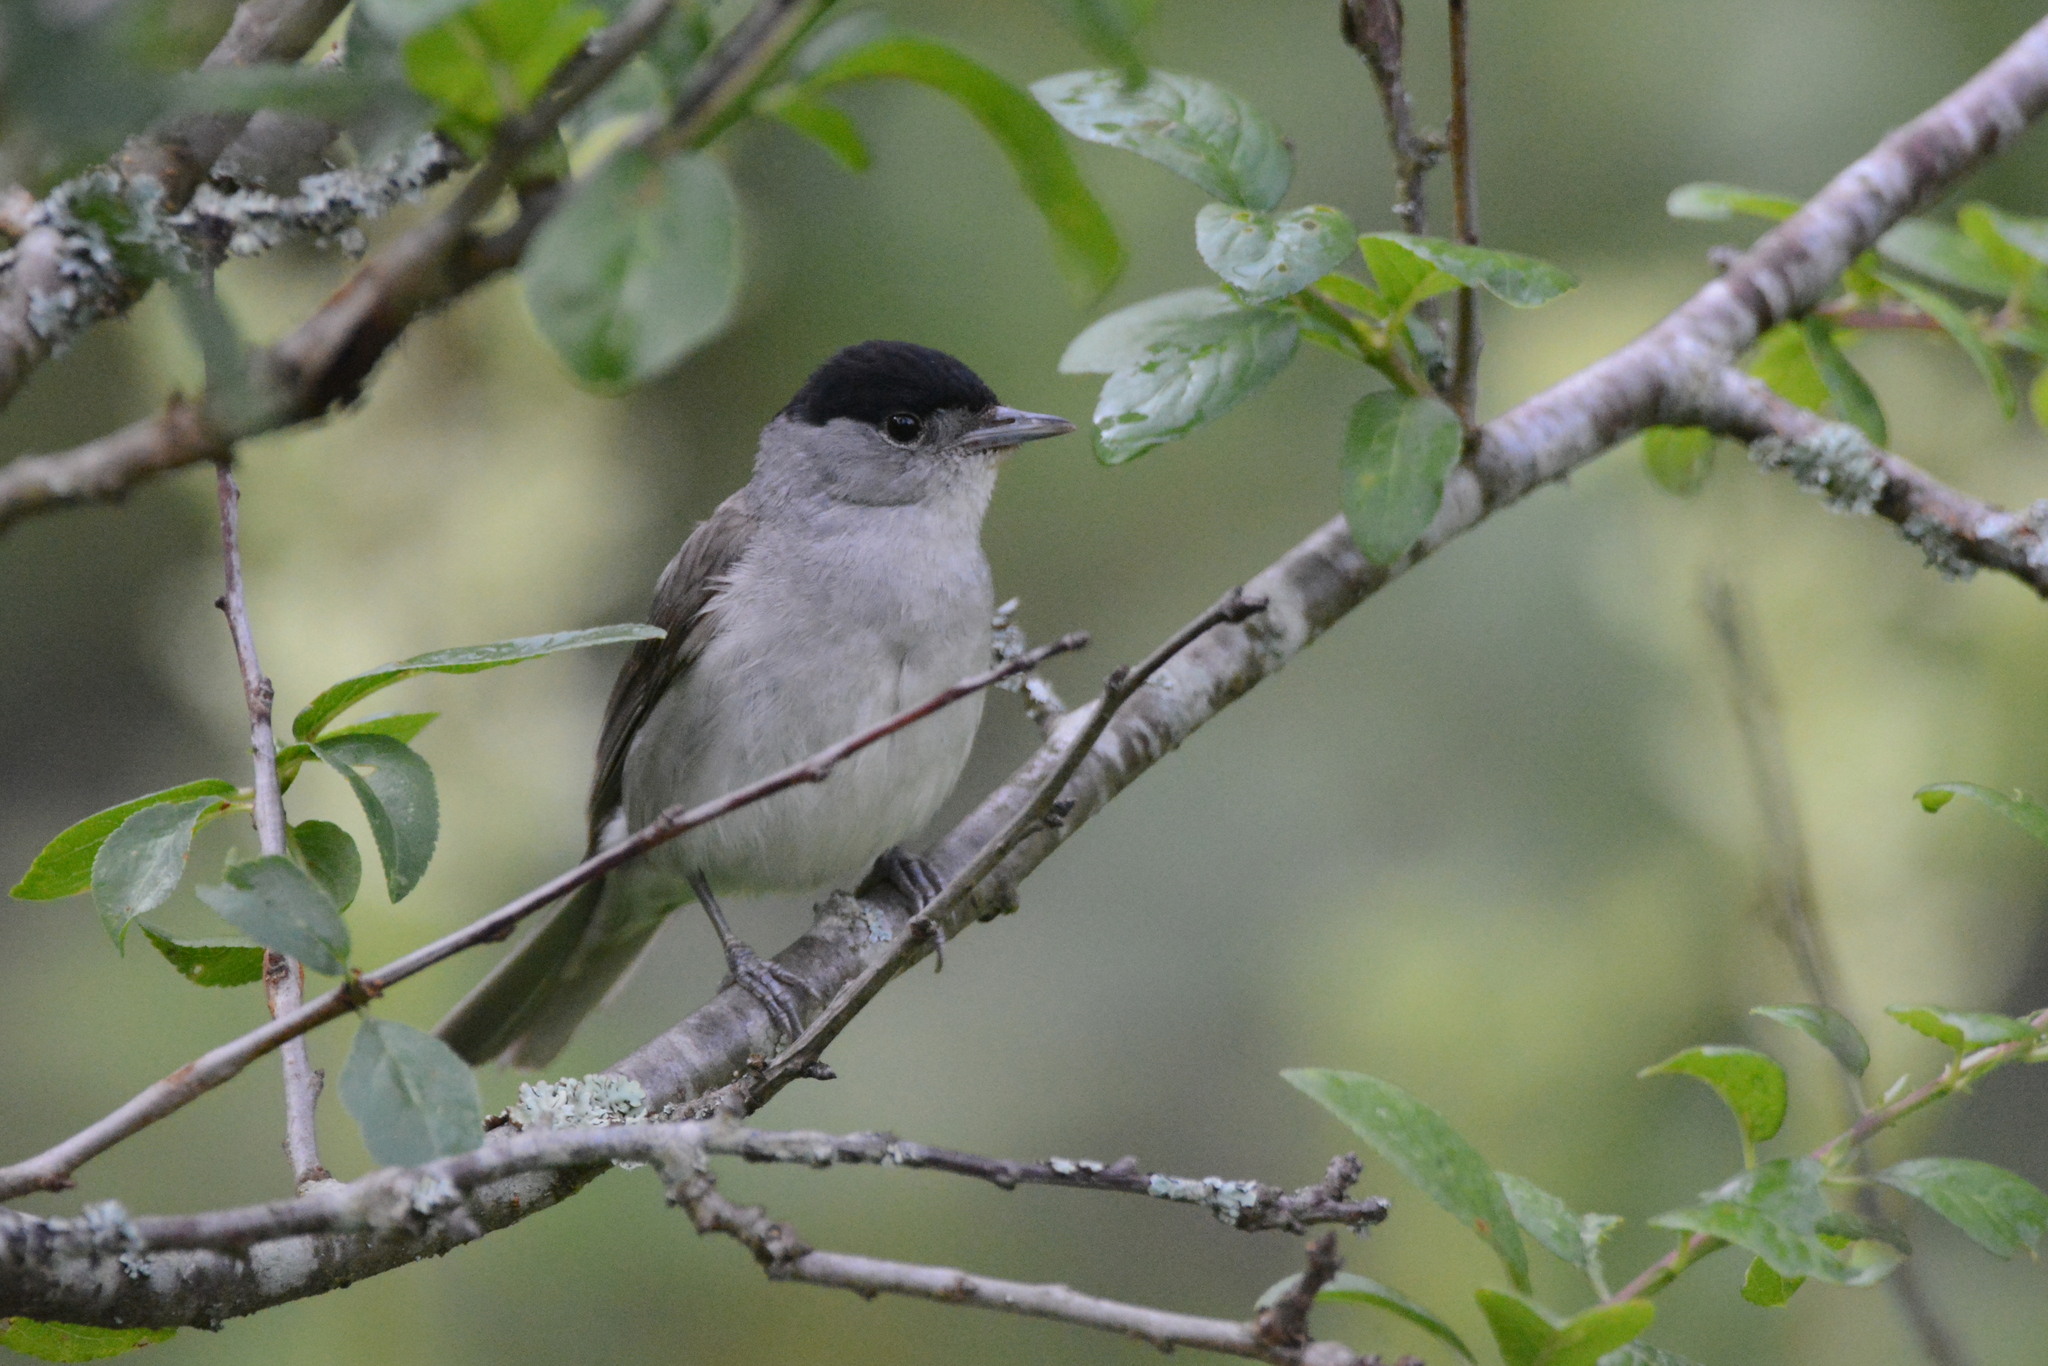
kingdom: Animalia
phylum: Chordata
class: Aves
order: Passeriformes
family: Sylviidae
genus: Sylvia
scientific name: Sylvia atricapilla
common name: Eurasian blackcap
